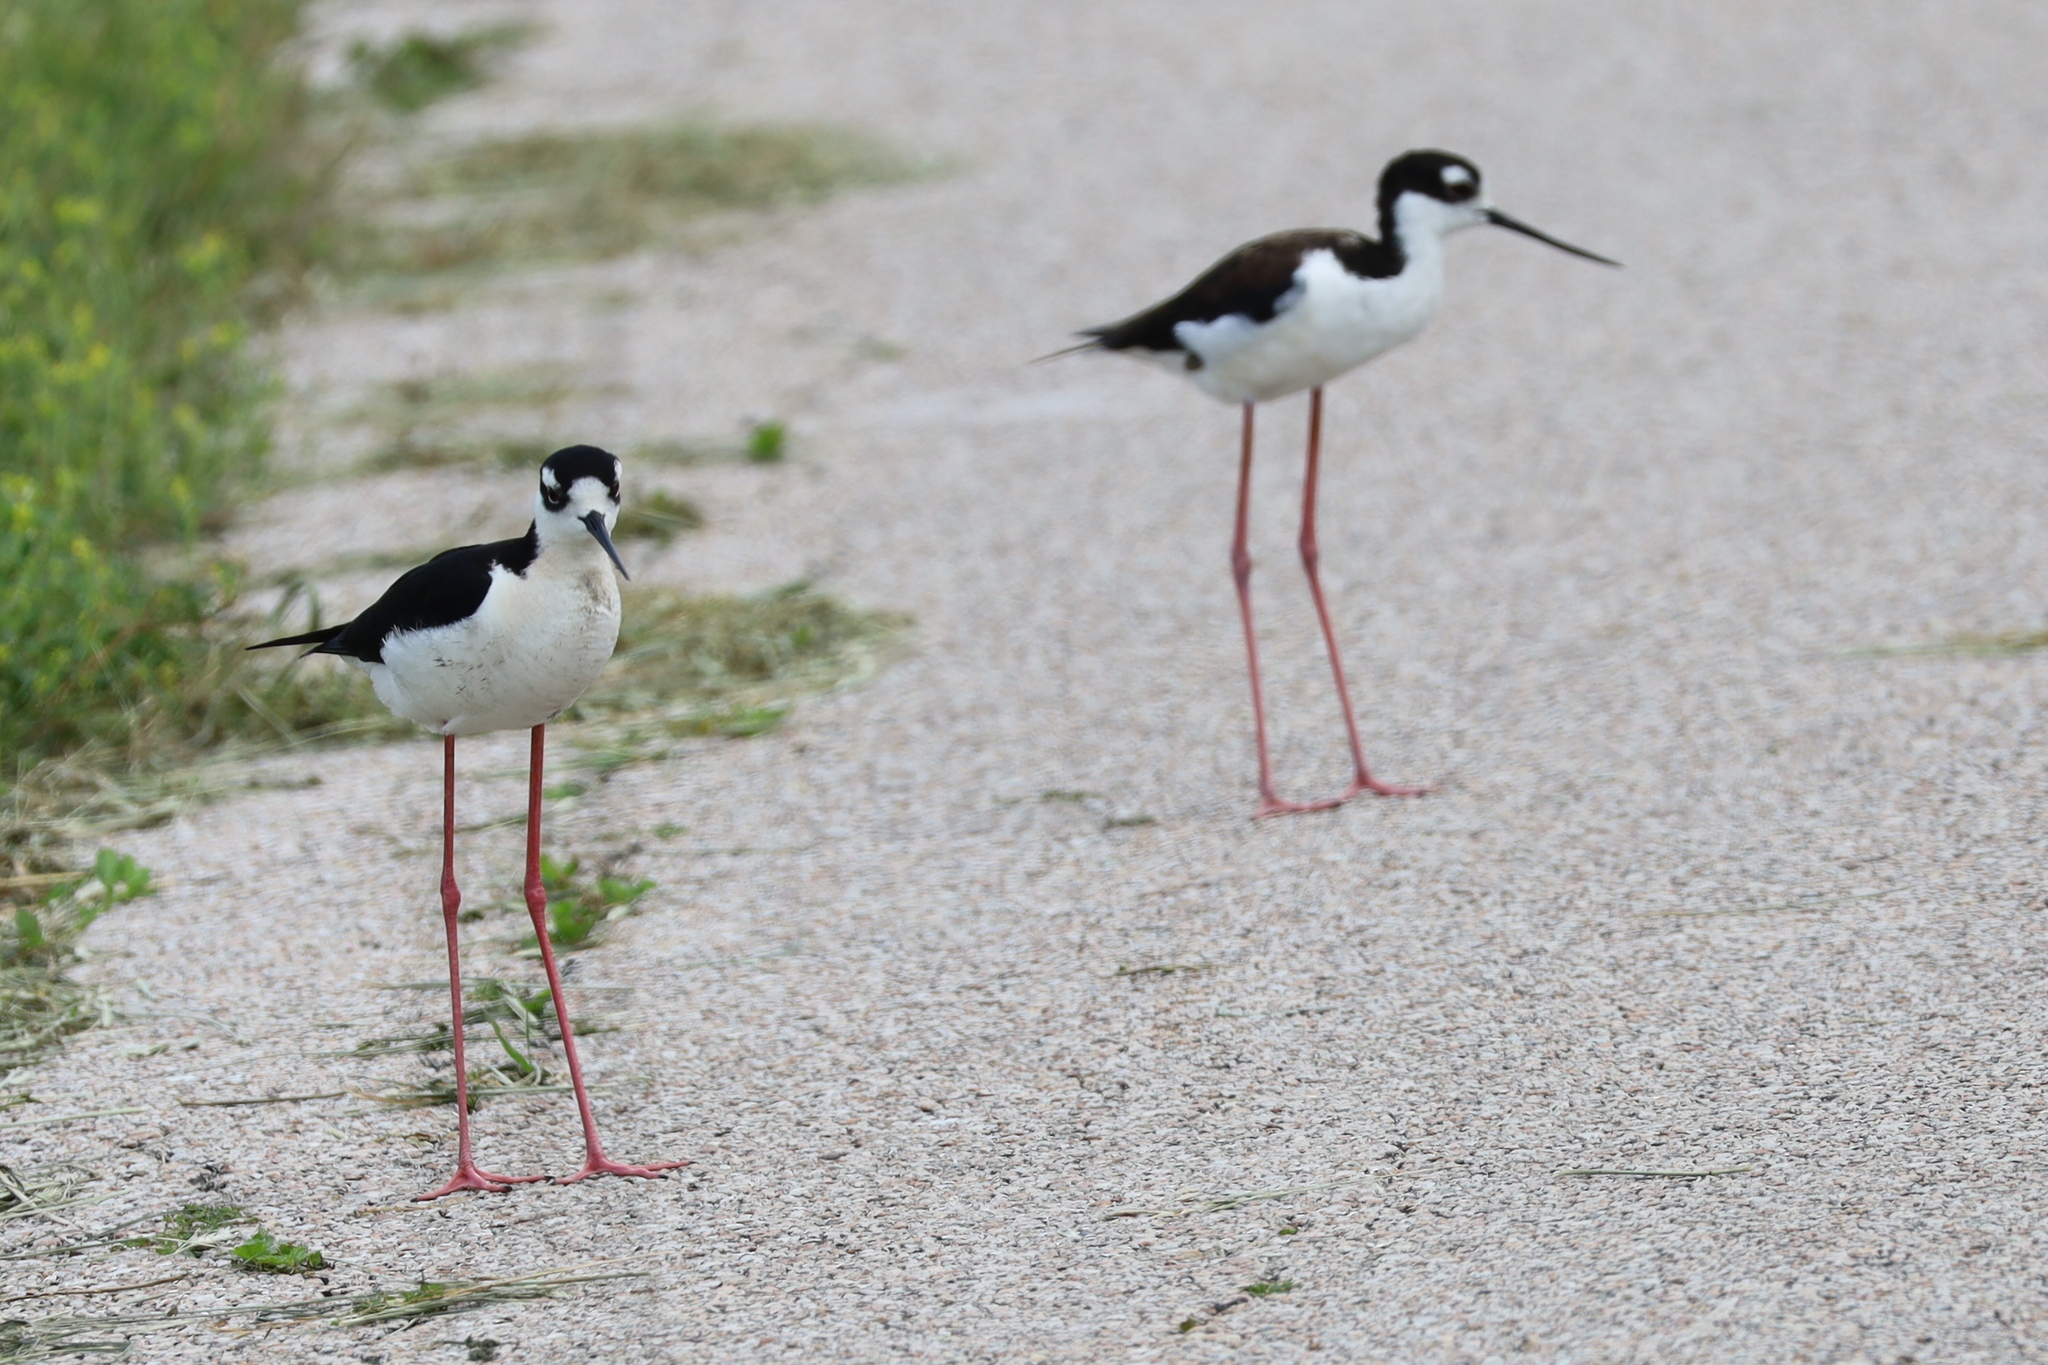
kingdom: Animalia
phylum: Chordata
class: Aves
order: Charadriiformes
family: Recurvirostridae
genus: Himantopus
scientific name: Himantopus mexicanus
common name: Black-necked stilt
